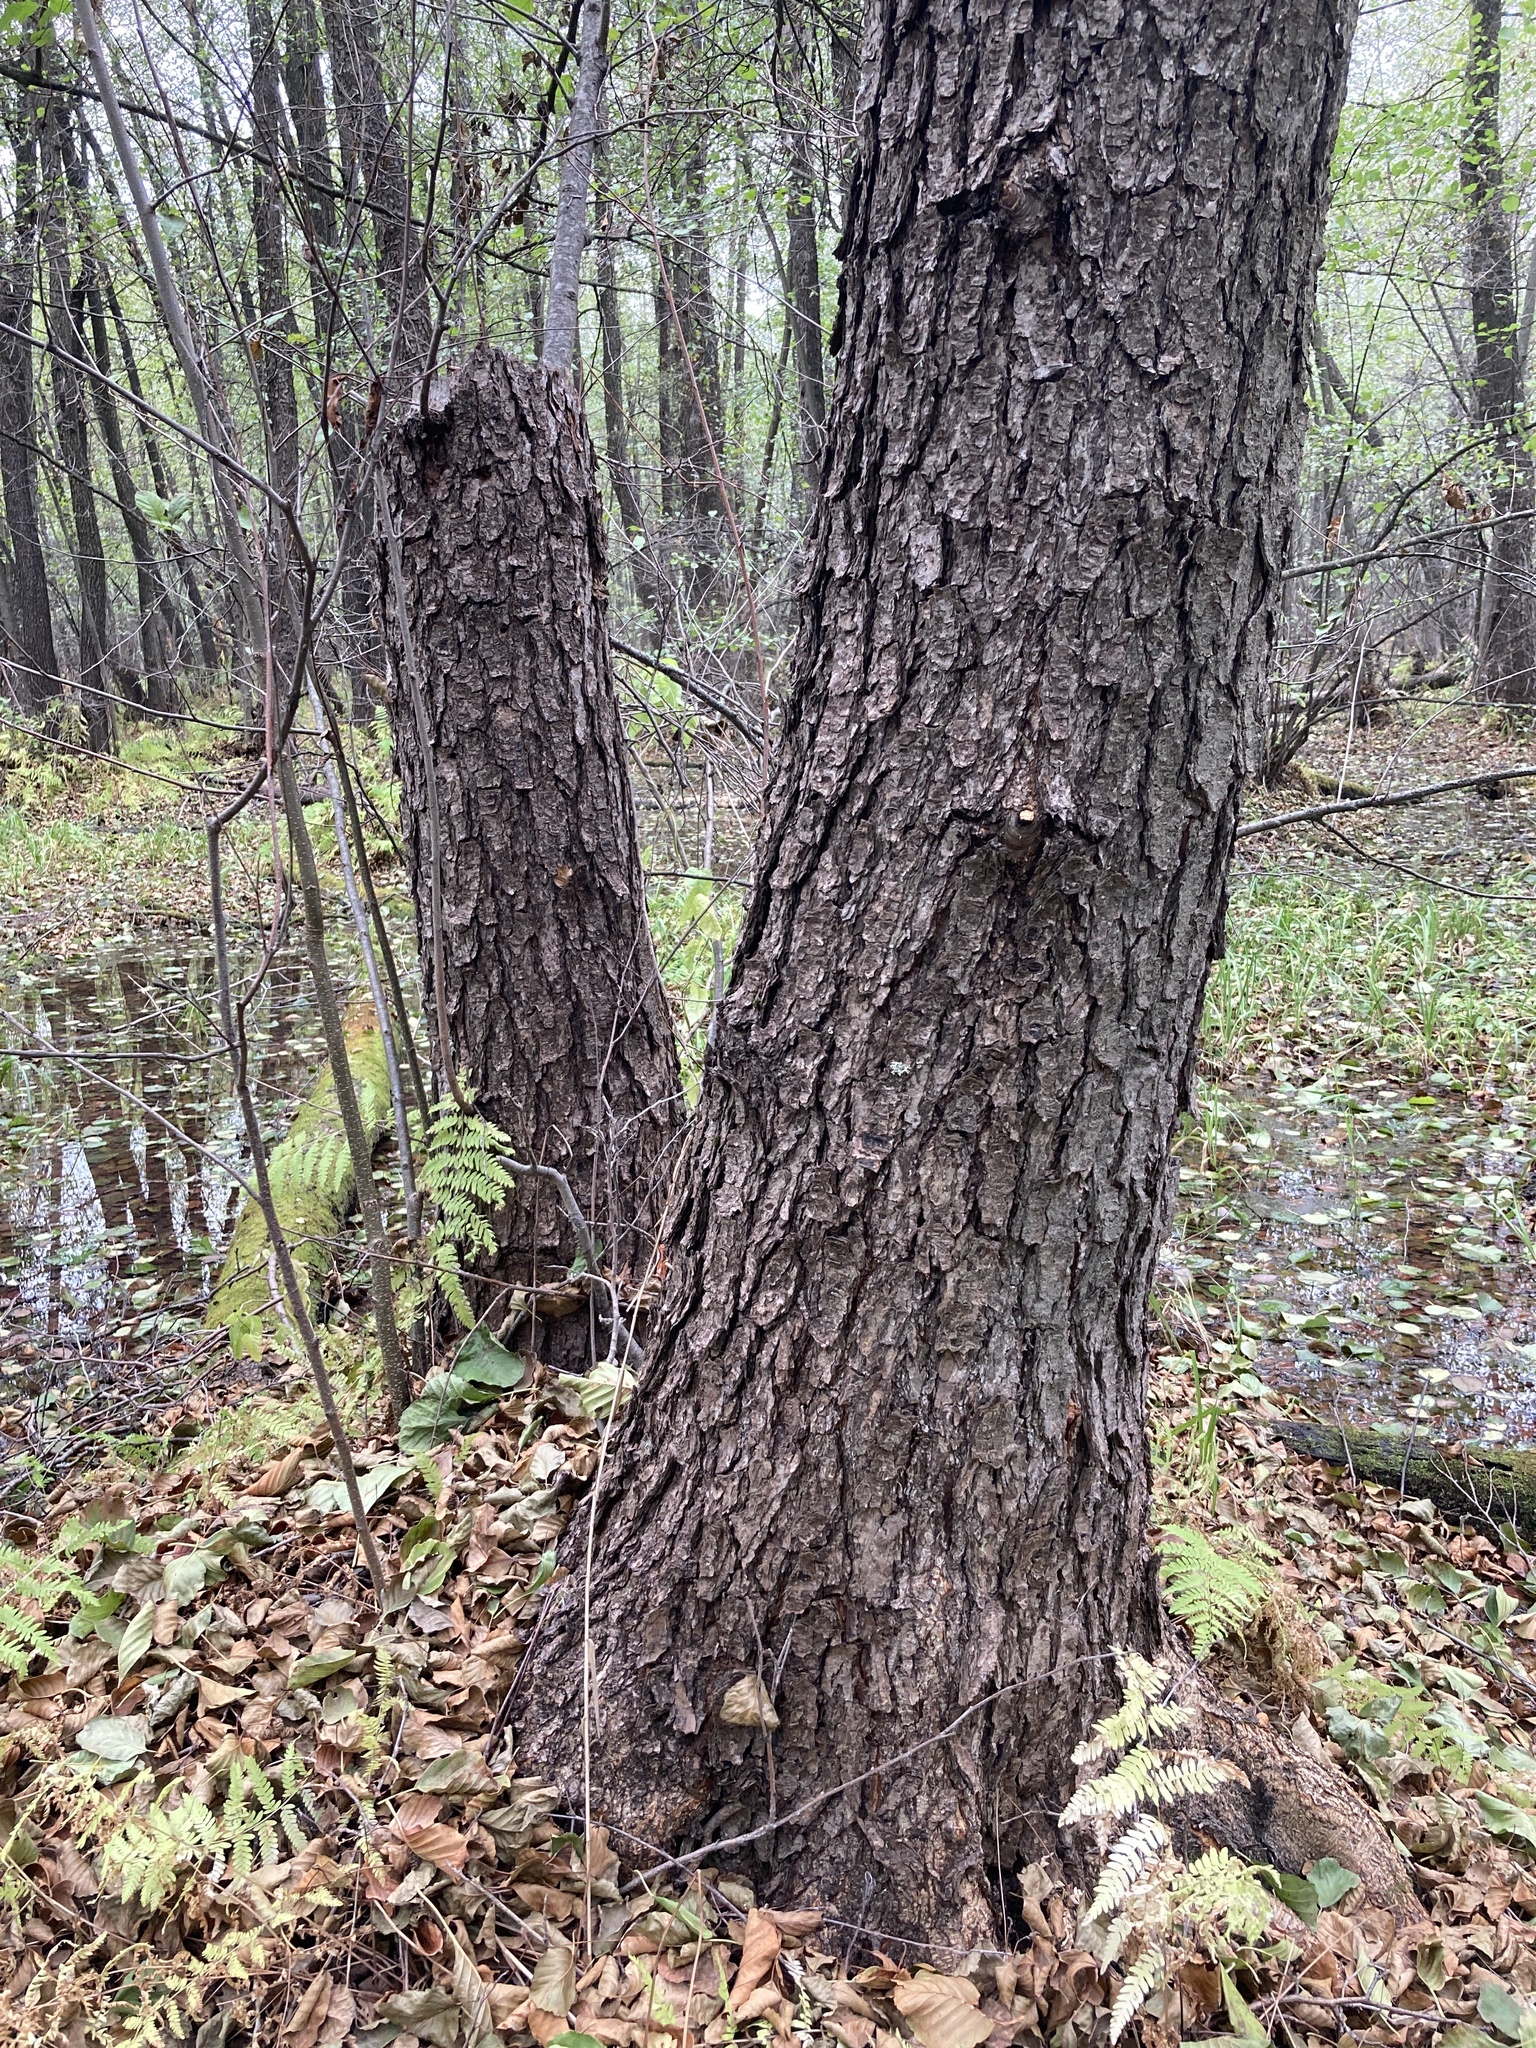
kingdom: Plantae
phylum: Tracheophyta
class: Magnoliopsida
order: Fagales
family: Betulaceae
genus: Alnus
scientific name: Alnus glutinosa
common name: Black alder
